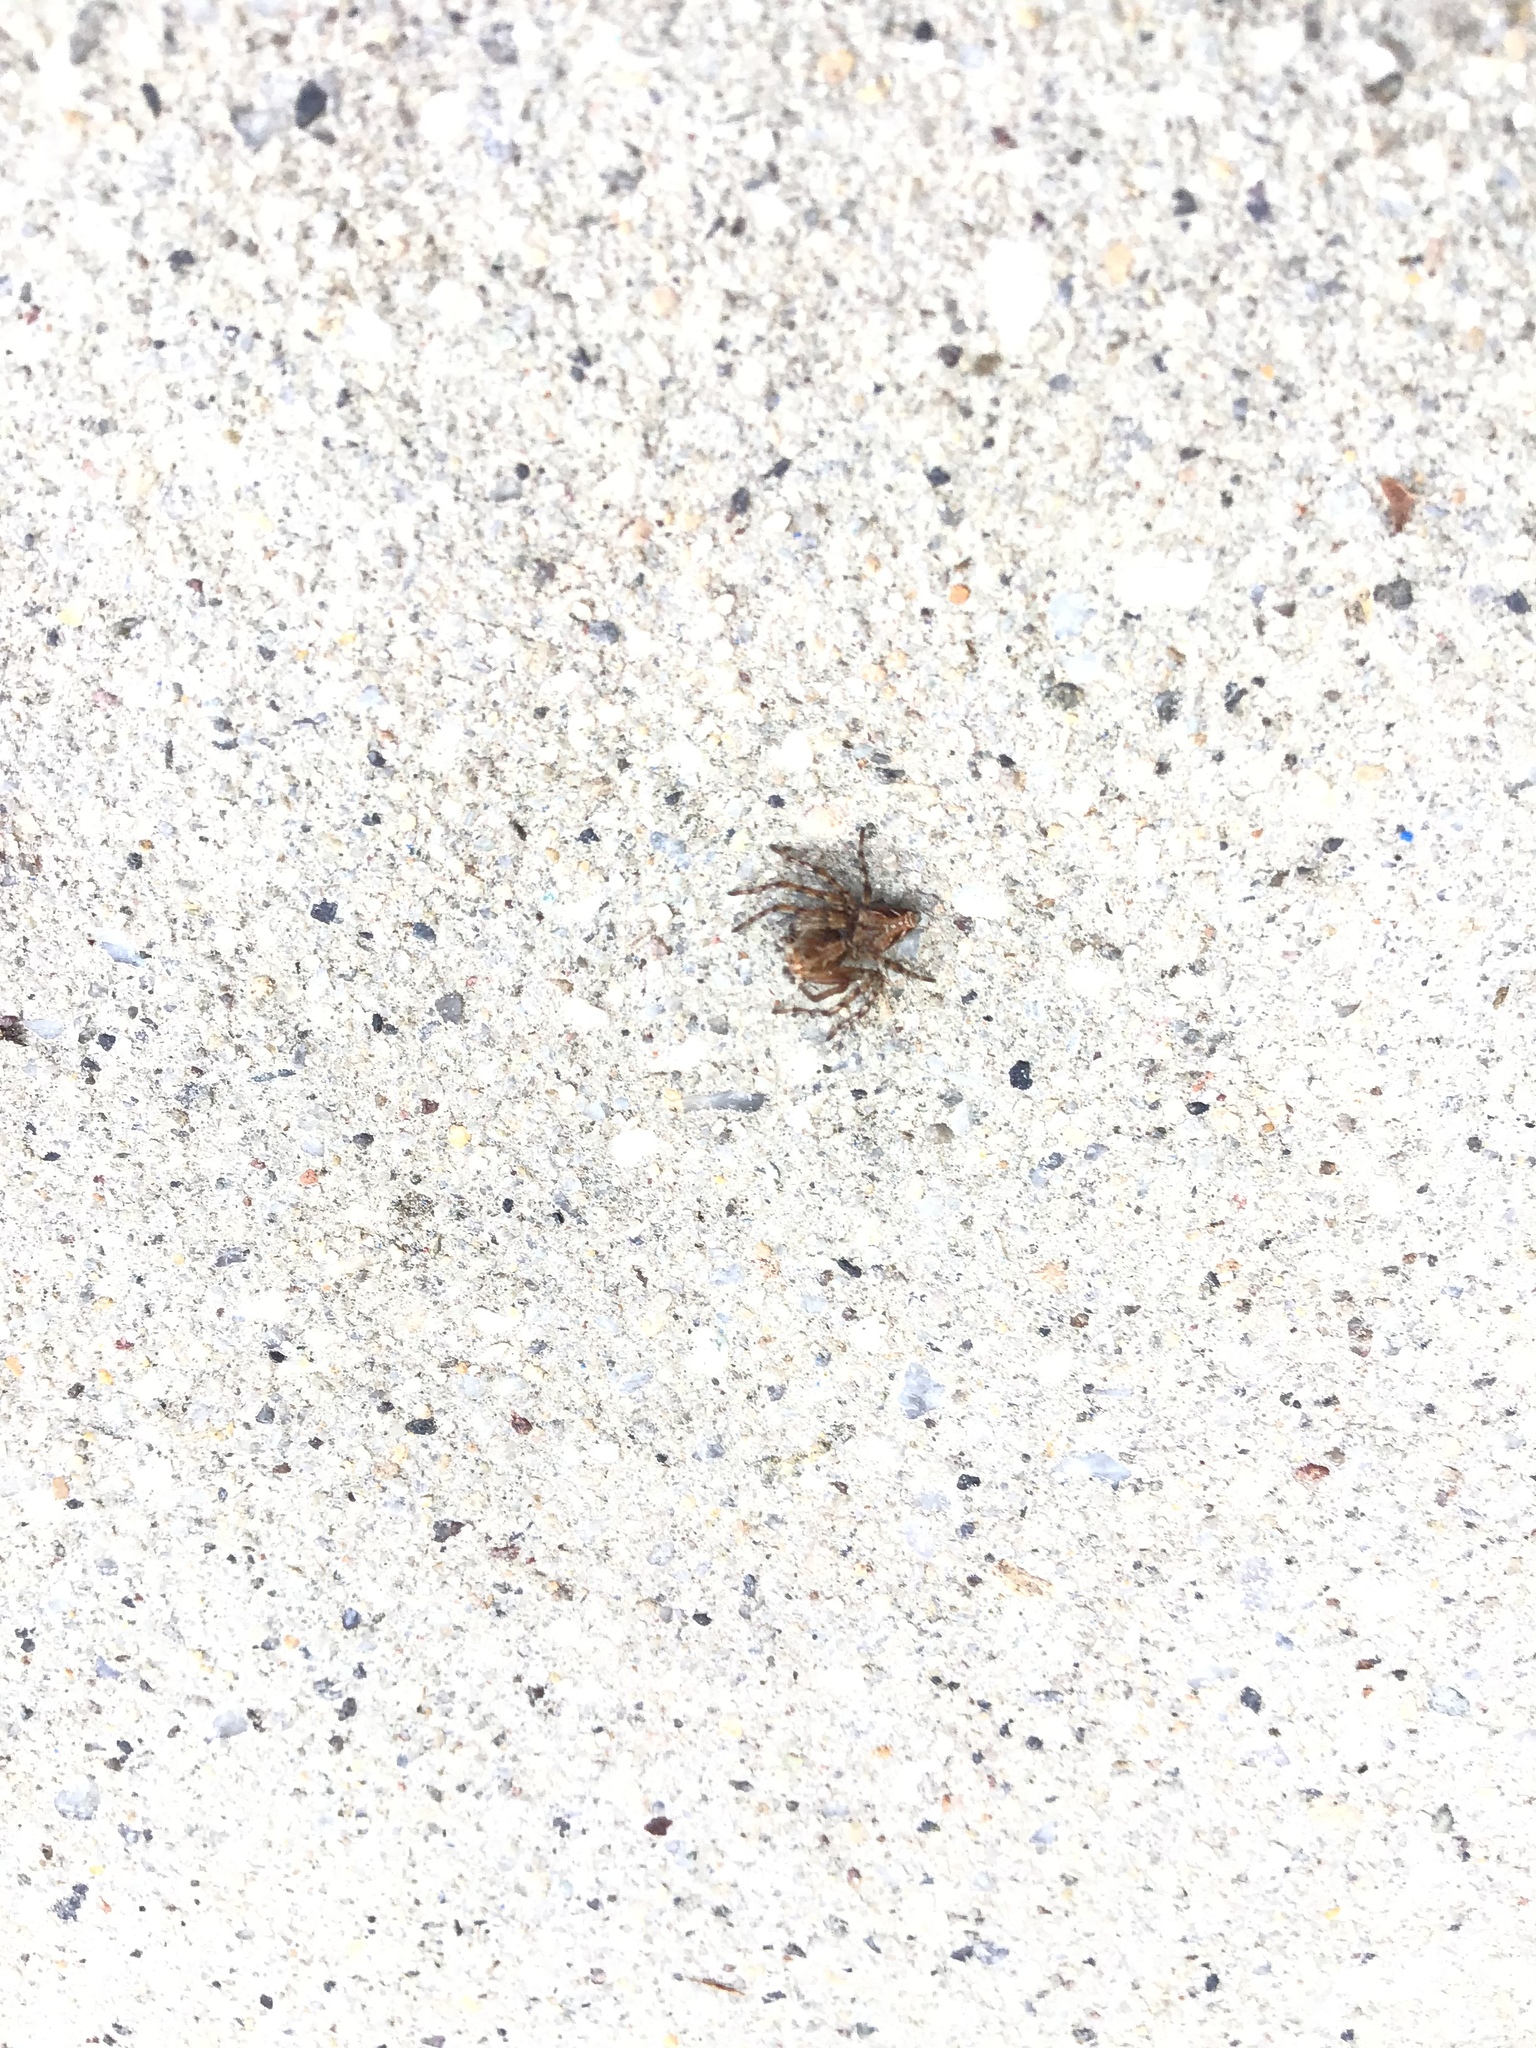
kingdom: Animalia
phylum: Arthropoda
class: Arachnida
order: Araneae
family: Oxyopidae
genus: Oxyopes
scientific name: Oxyopes scalaris
